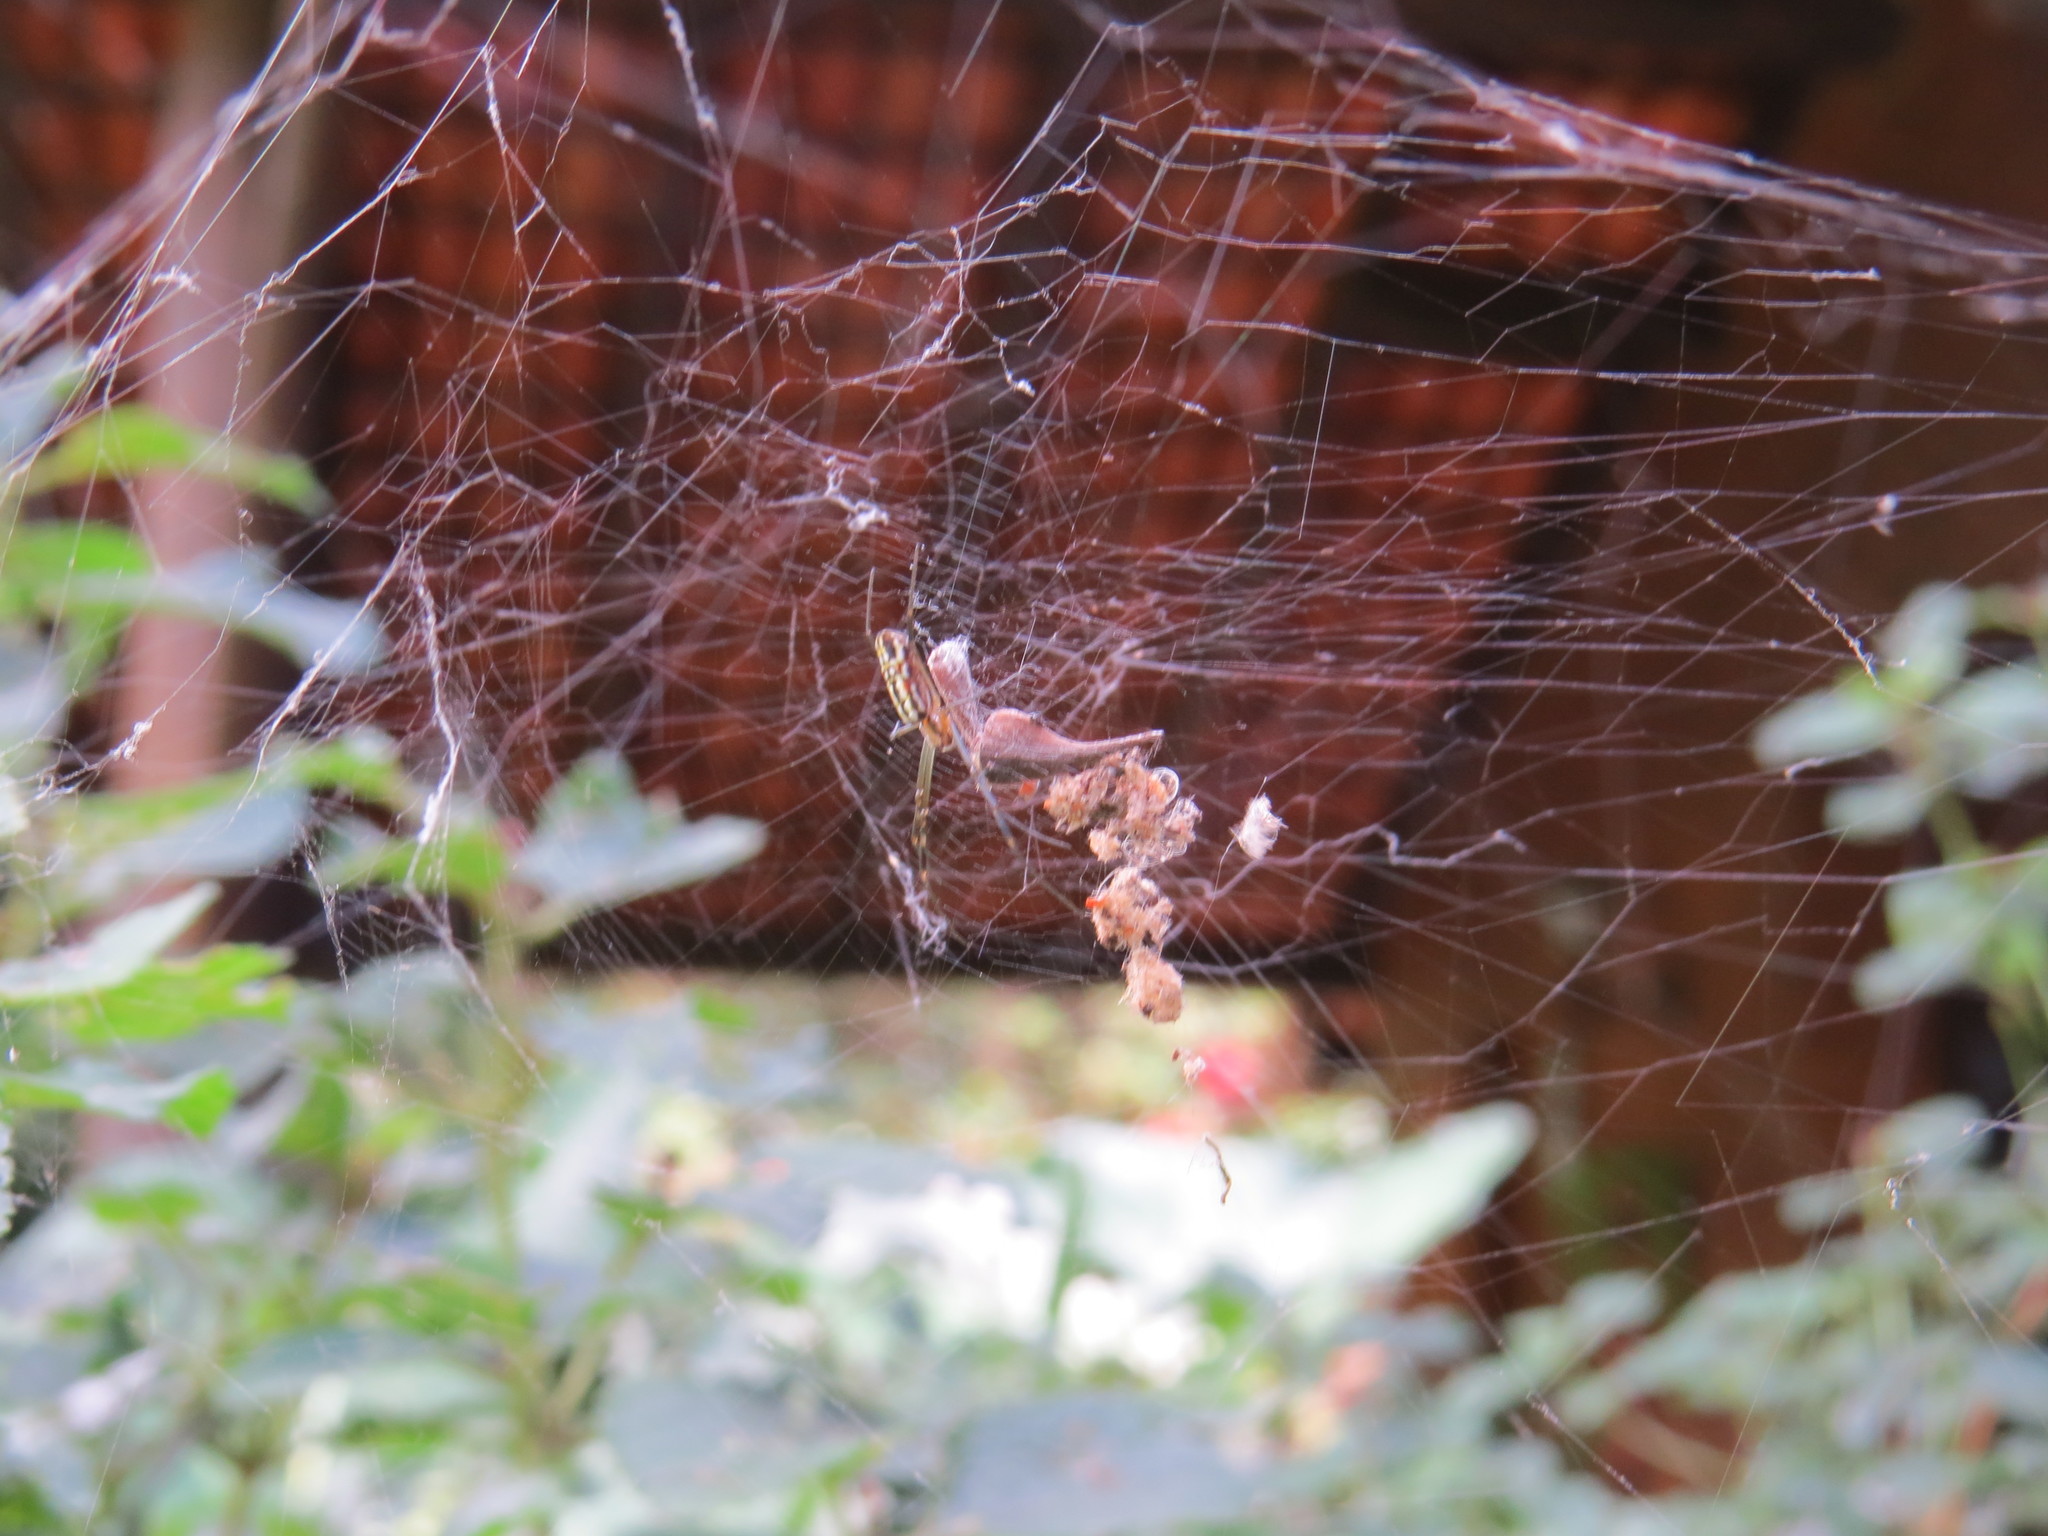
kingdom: Animalia
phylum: Arthropoda
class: Arachnida
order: Araneae
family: Araneidae
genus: Trichonephila
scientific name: Trichonephila clavipes
